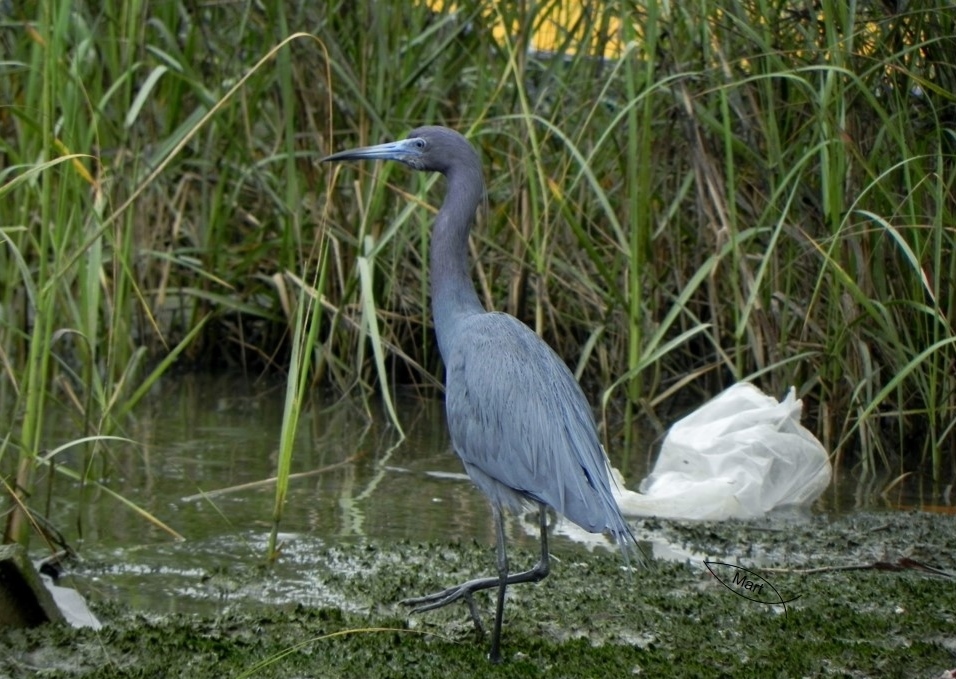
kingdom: Animalia
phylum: Chordata
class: Aves
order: Pelecaniformes
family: Ardeidae
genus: Egretta
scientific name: Egretta caerulea
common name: Little blue heron
